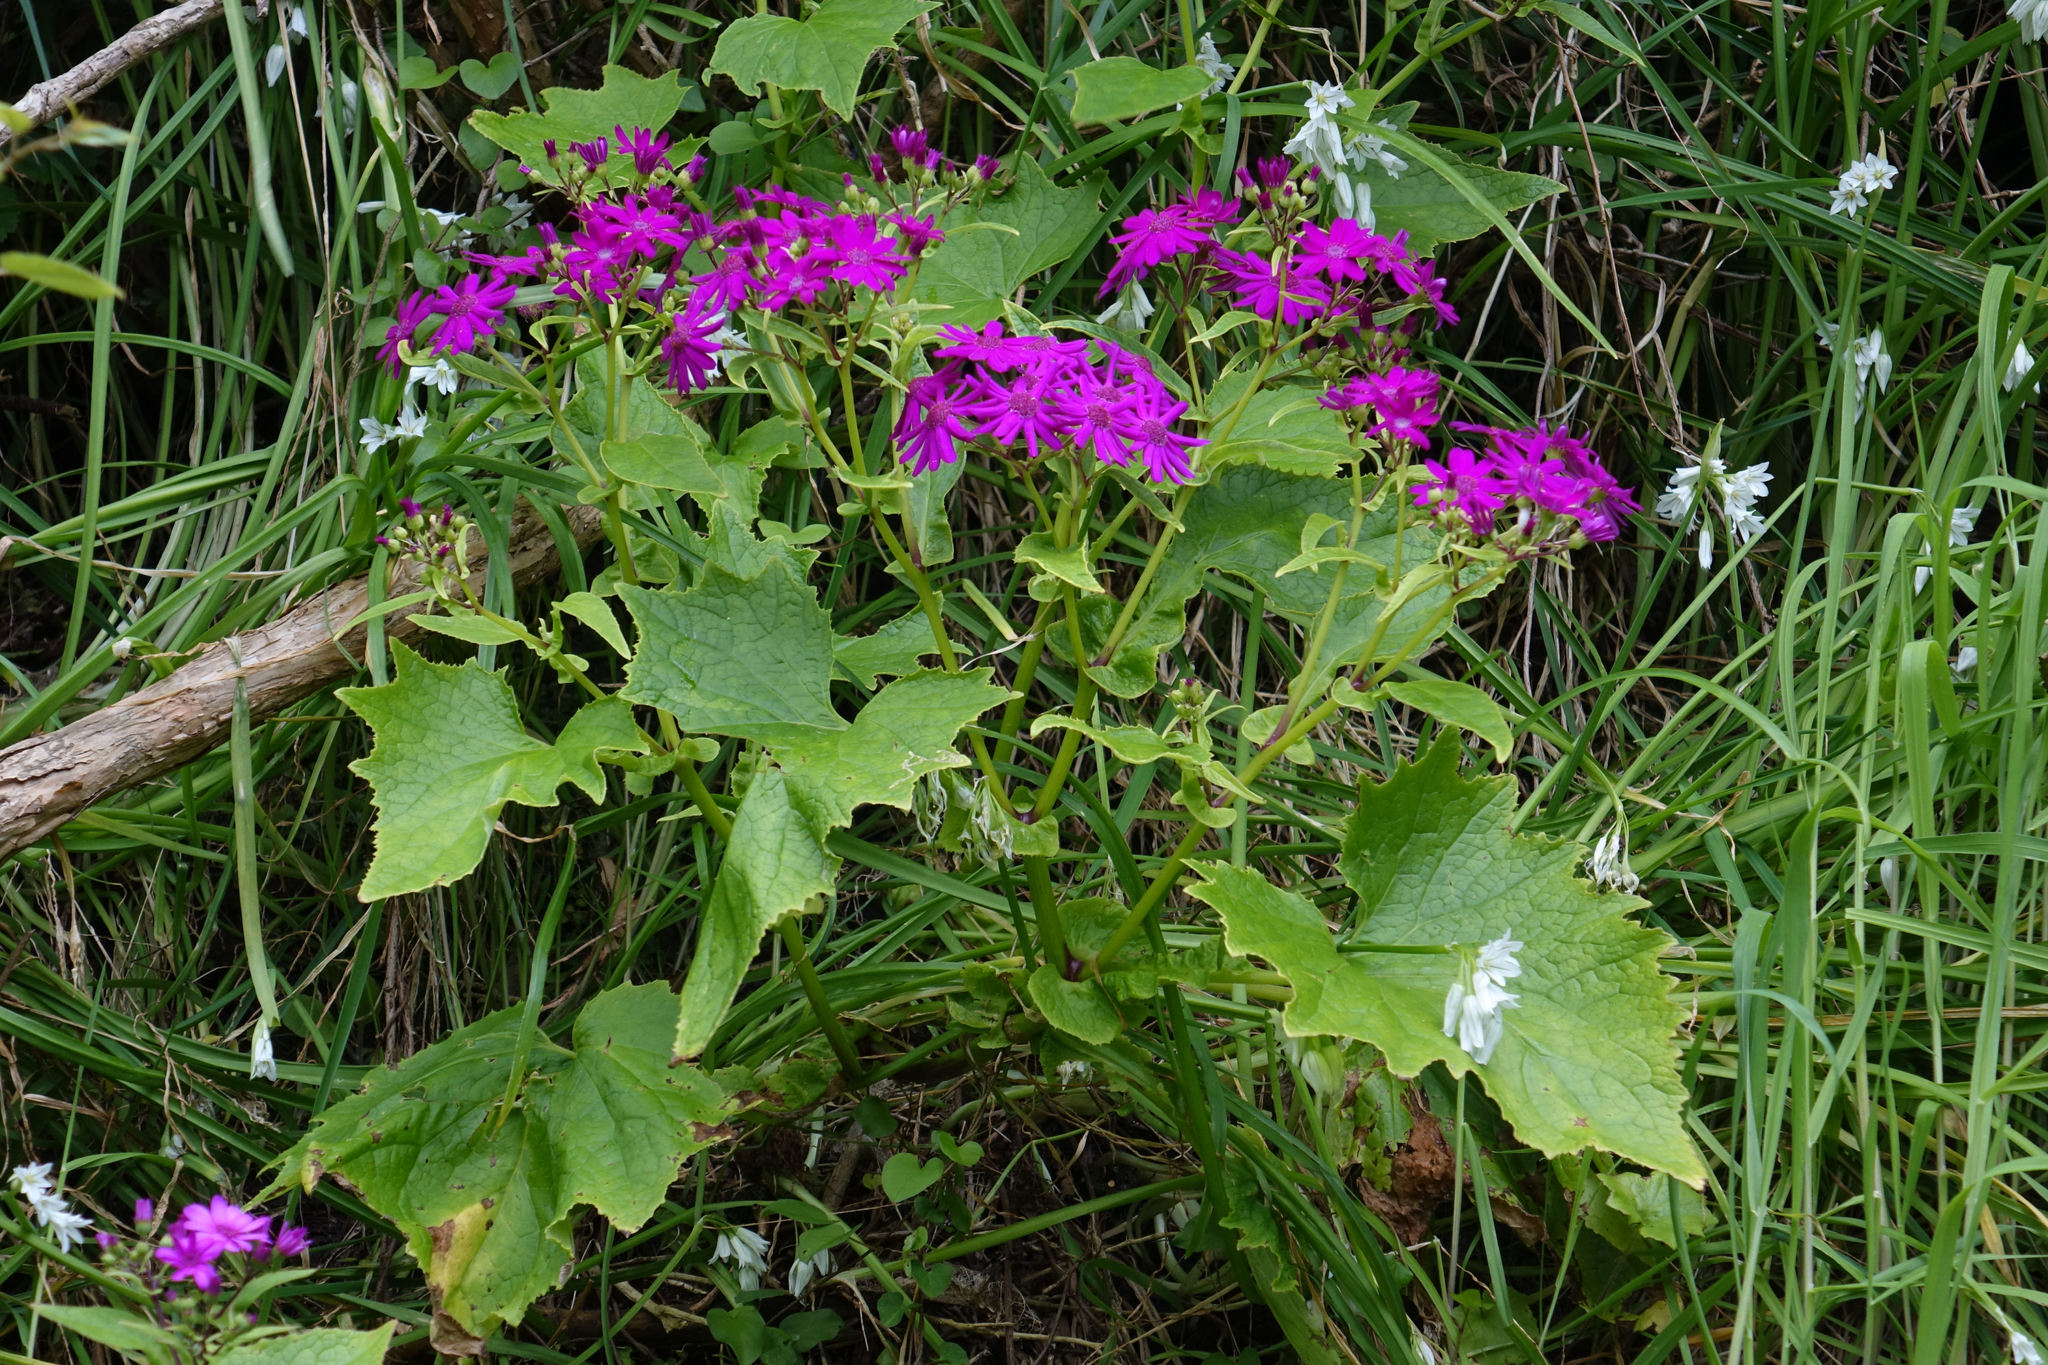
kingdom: Plantae
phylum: Tracheophyta
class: Magnoliopsida
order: Asterales
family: Asteraceae
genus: Pericallis
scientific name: Pericallis hybrida
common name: Cineraria
